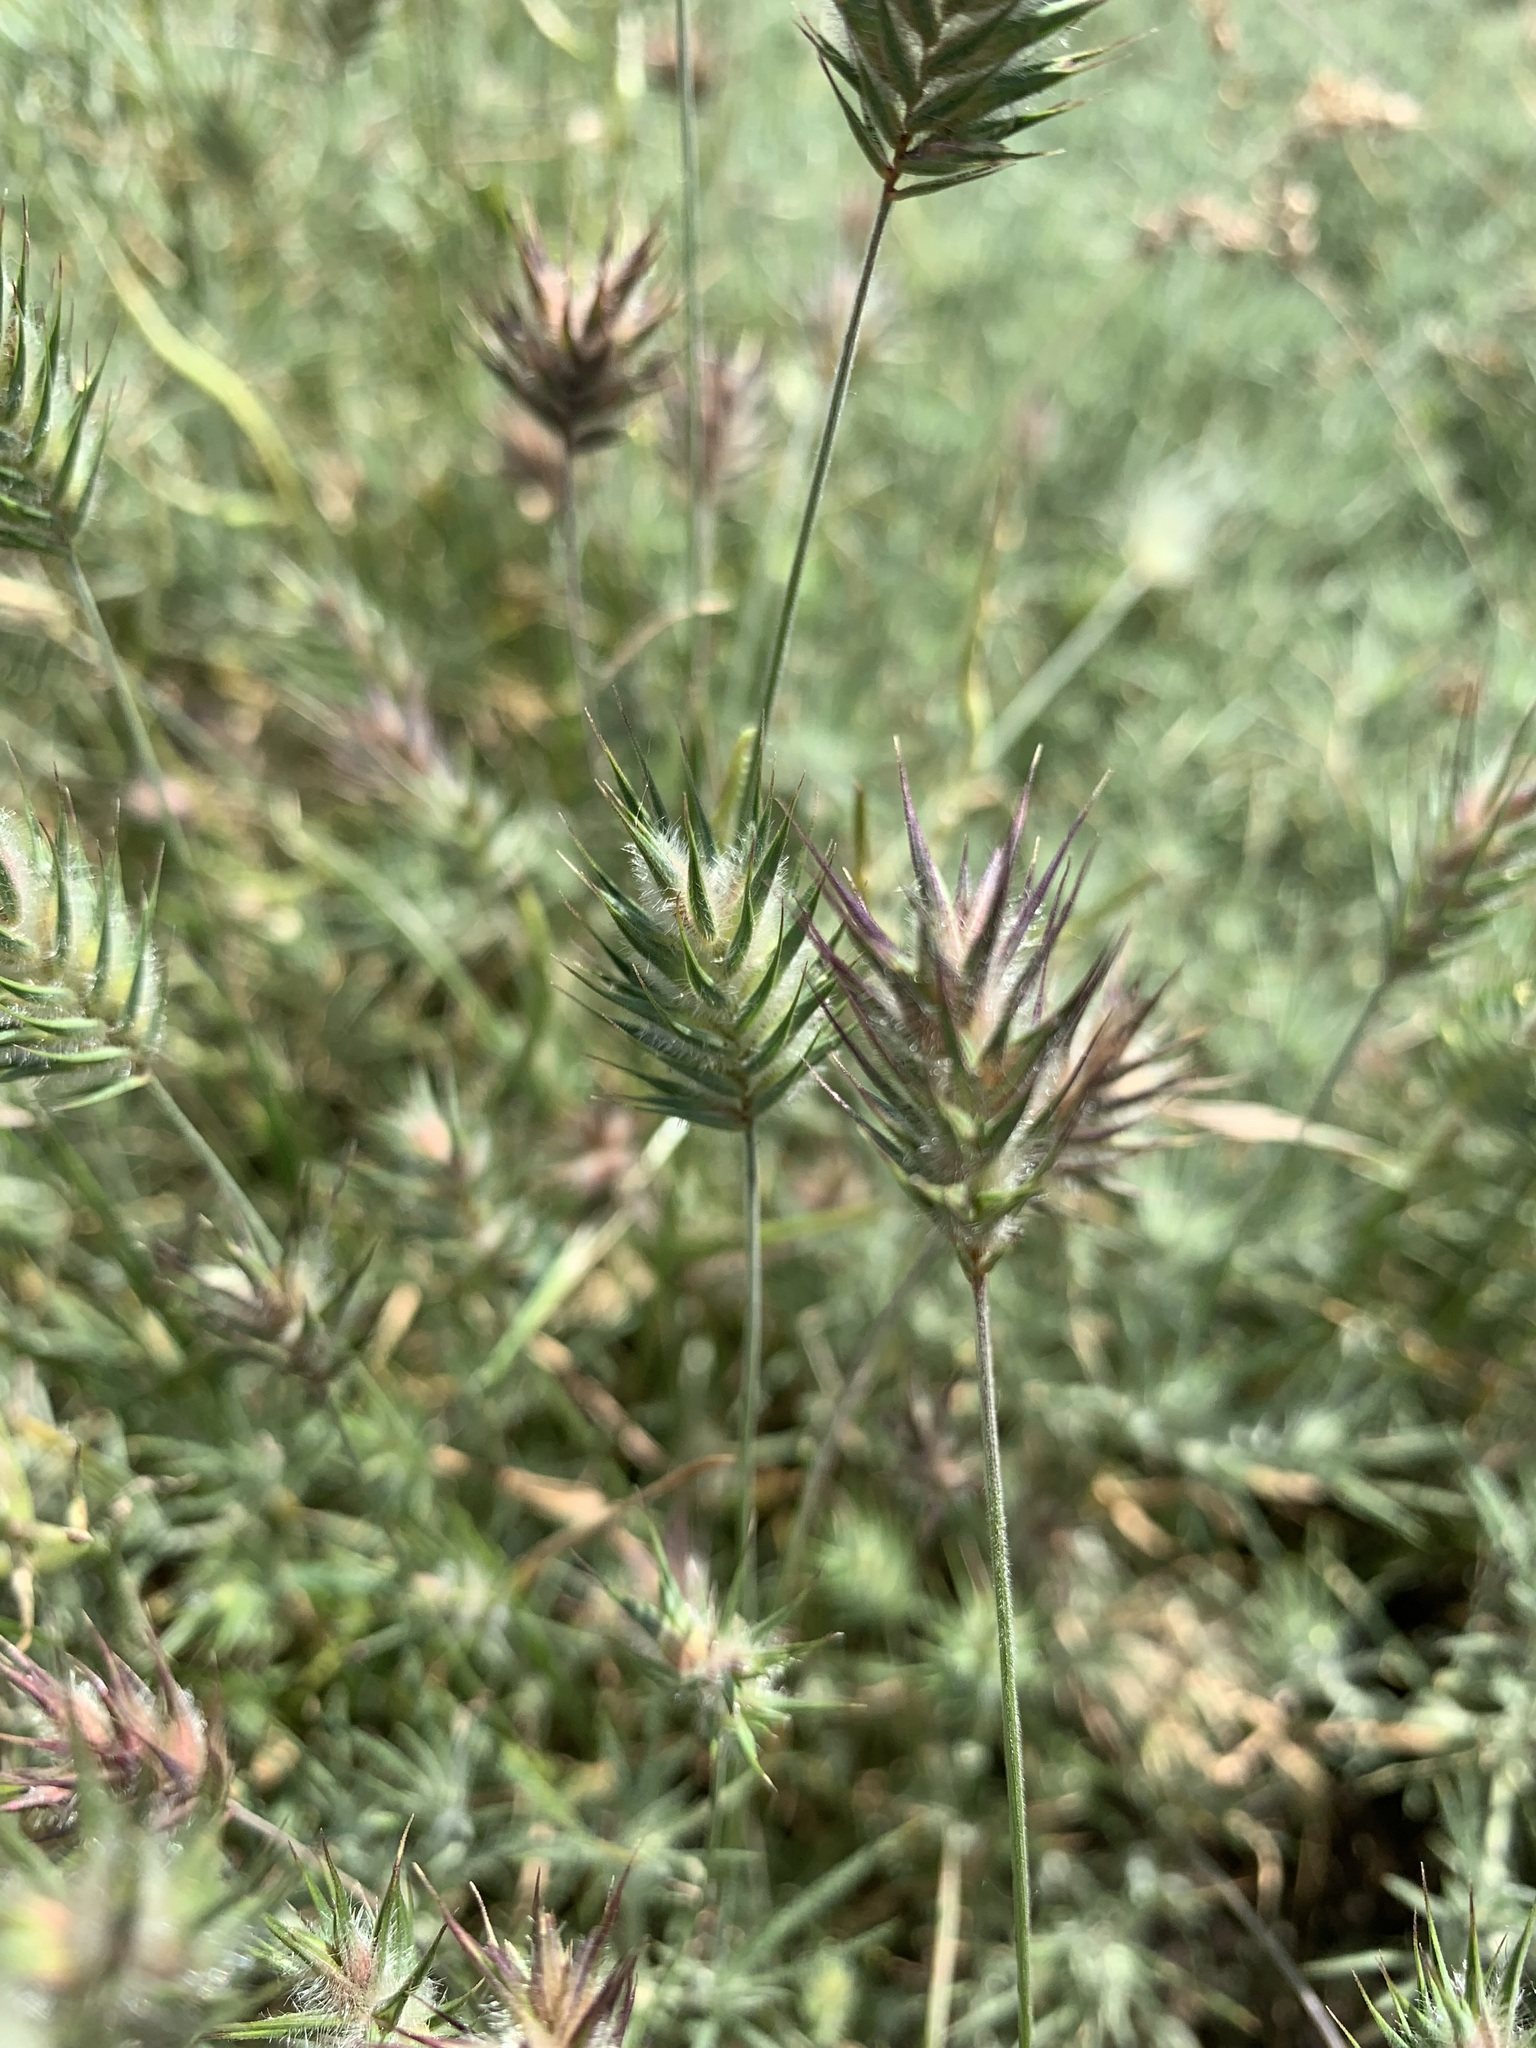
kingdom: Plantae
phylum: Tracheophyta
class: Liliopsida
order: Poales
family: Poaceae
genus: Eremopyrum
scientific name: Eremopyrum orientale
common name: Oriental false wheatgrass
